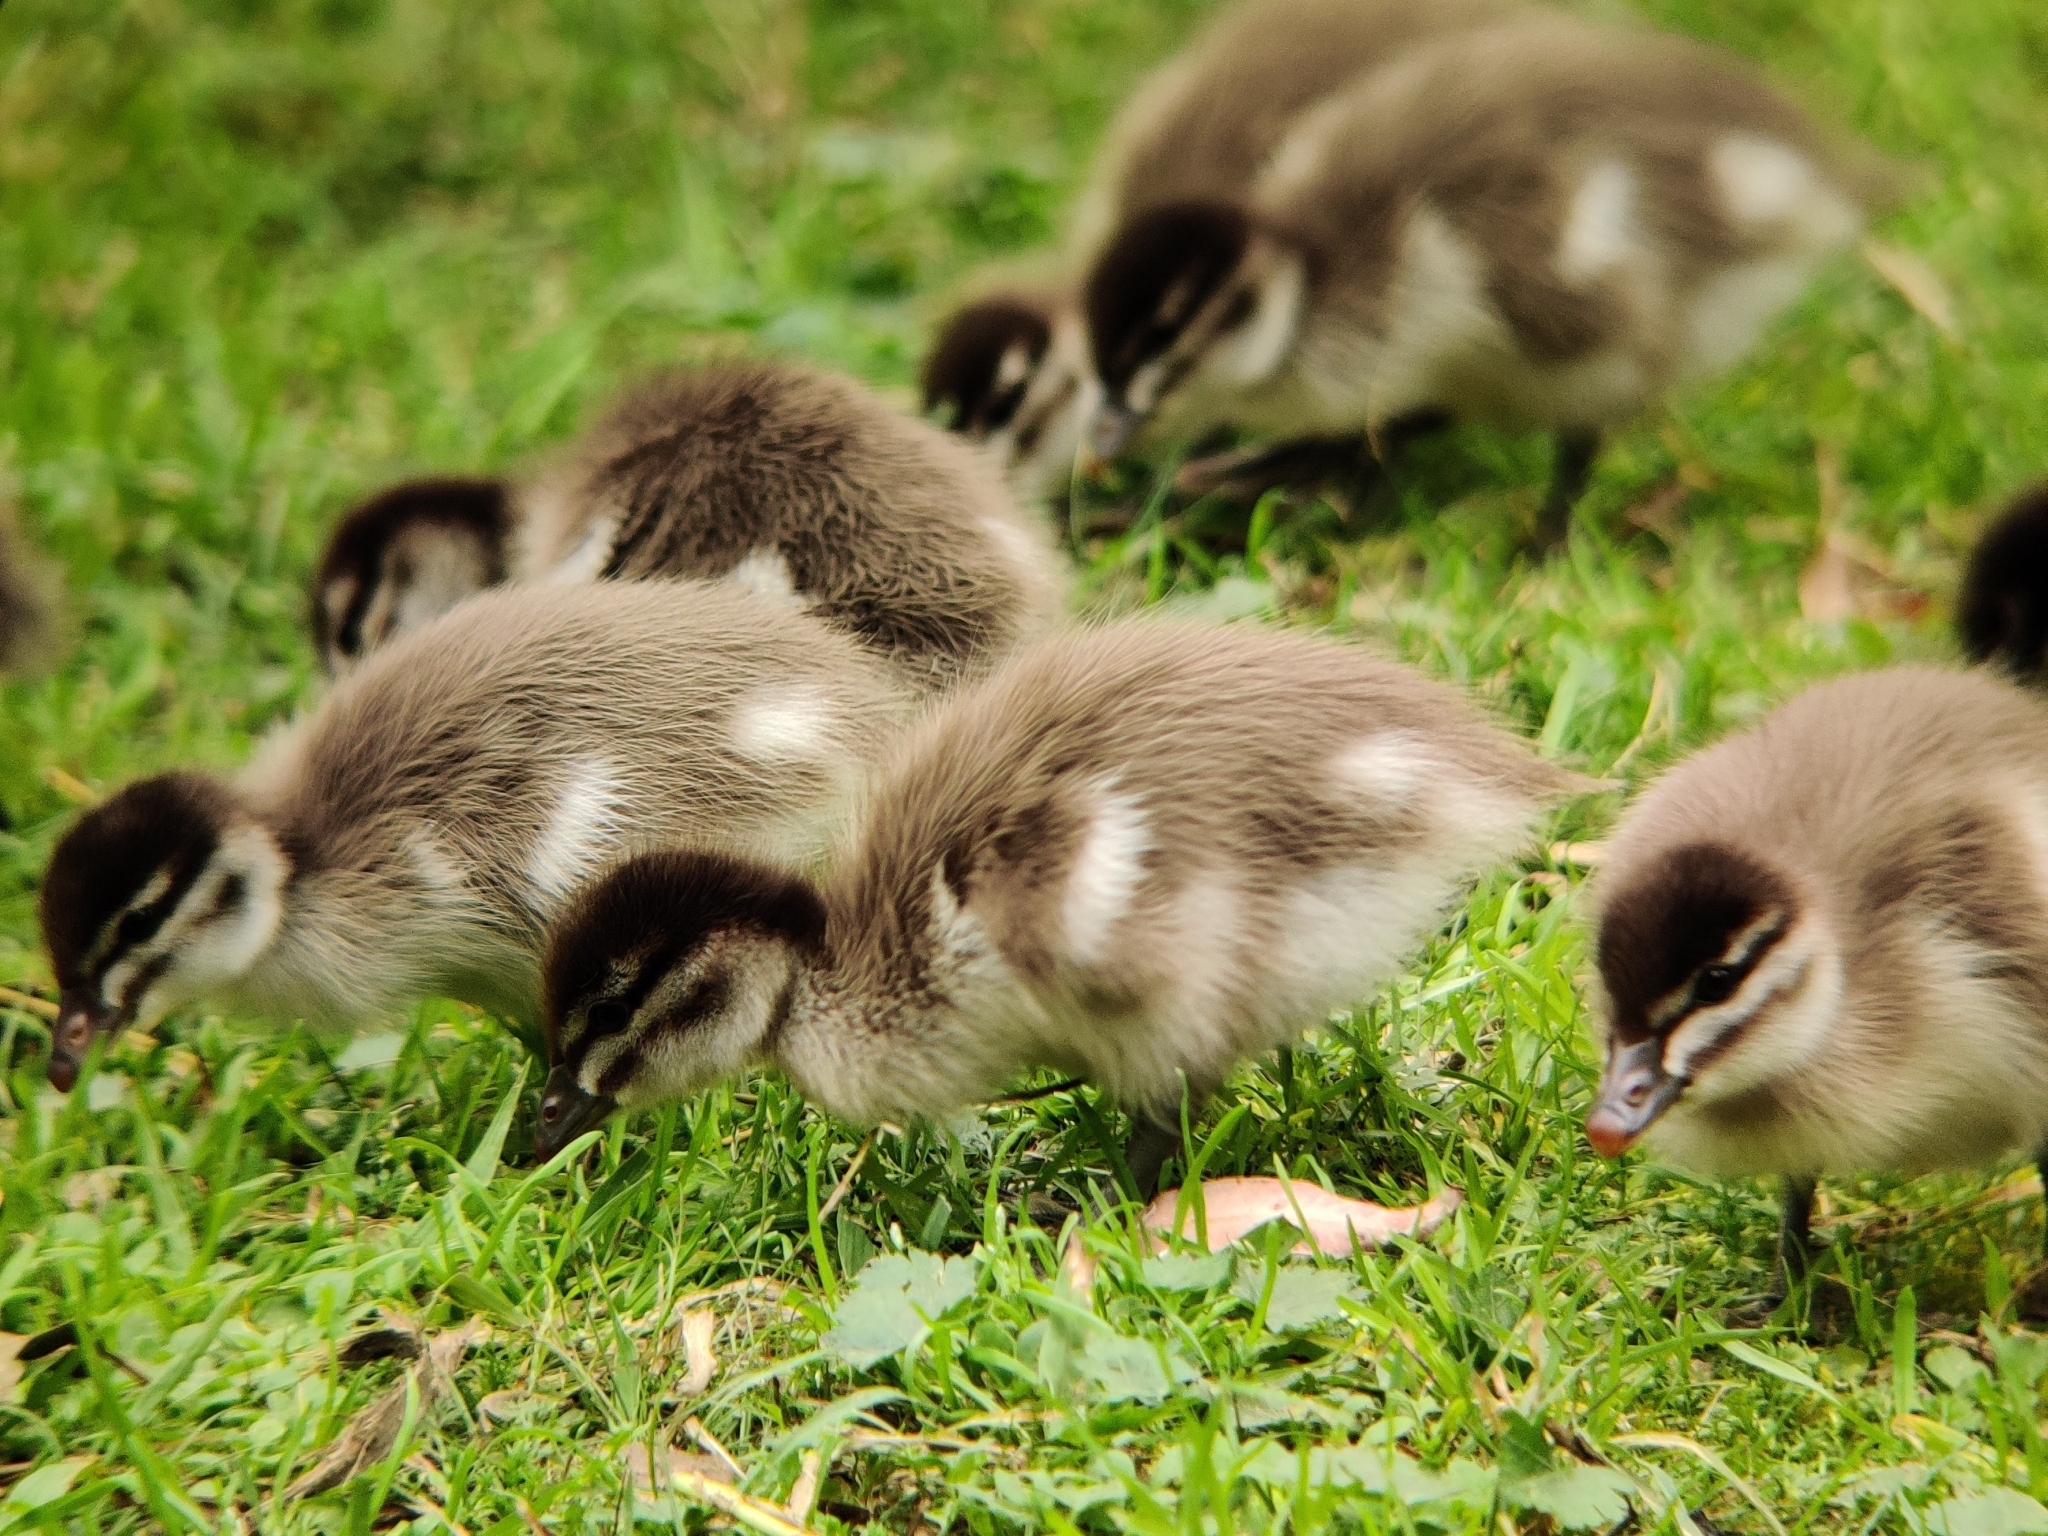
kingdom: Animalia
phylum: Chordata
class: Aves
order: Anseriformes
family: Anatidae
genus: Chenonetta
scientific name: Chenonetta jubata
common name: Maned duck
